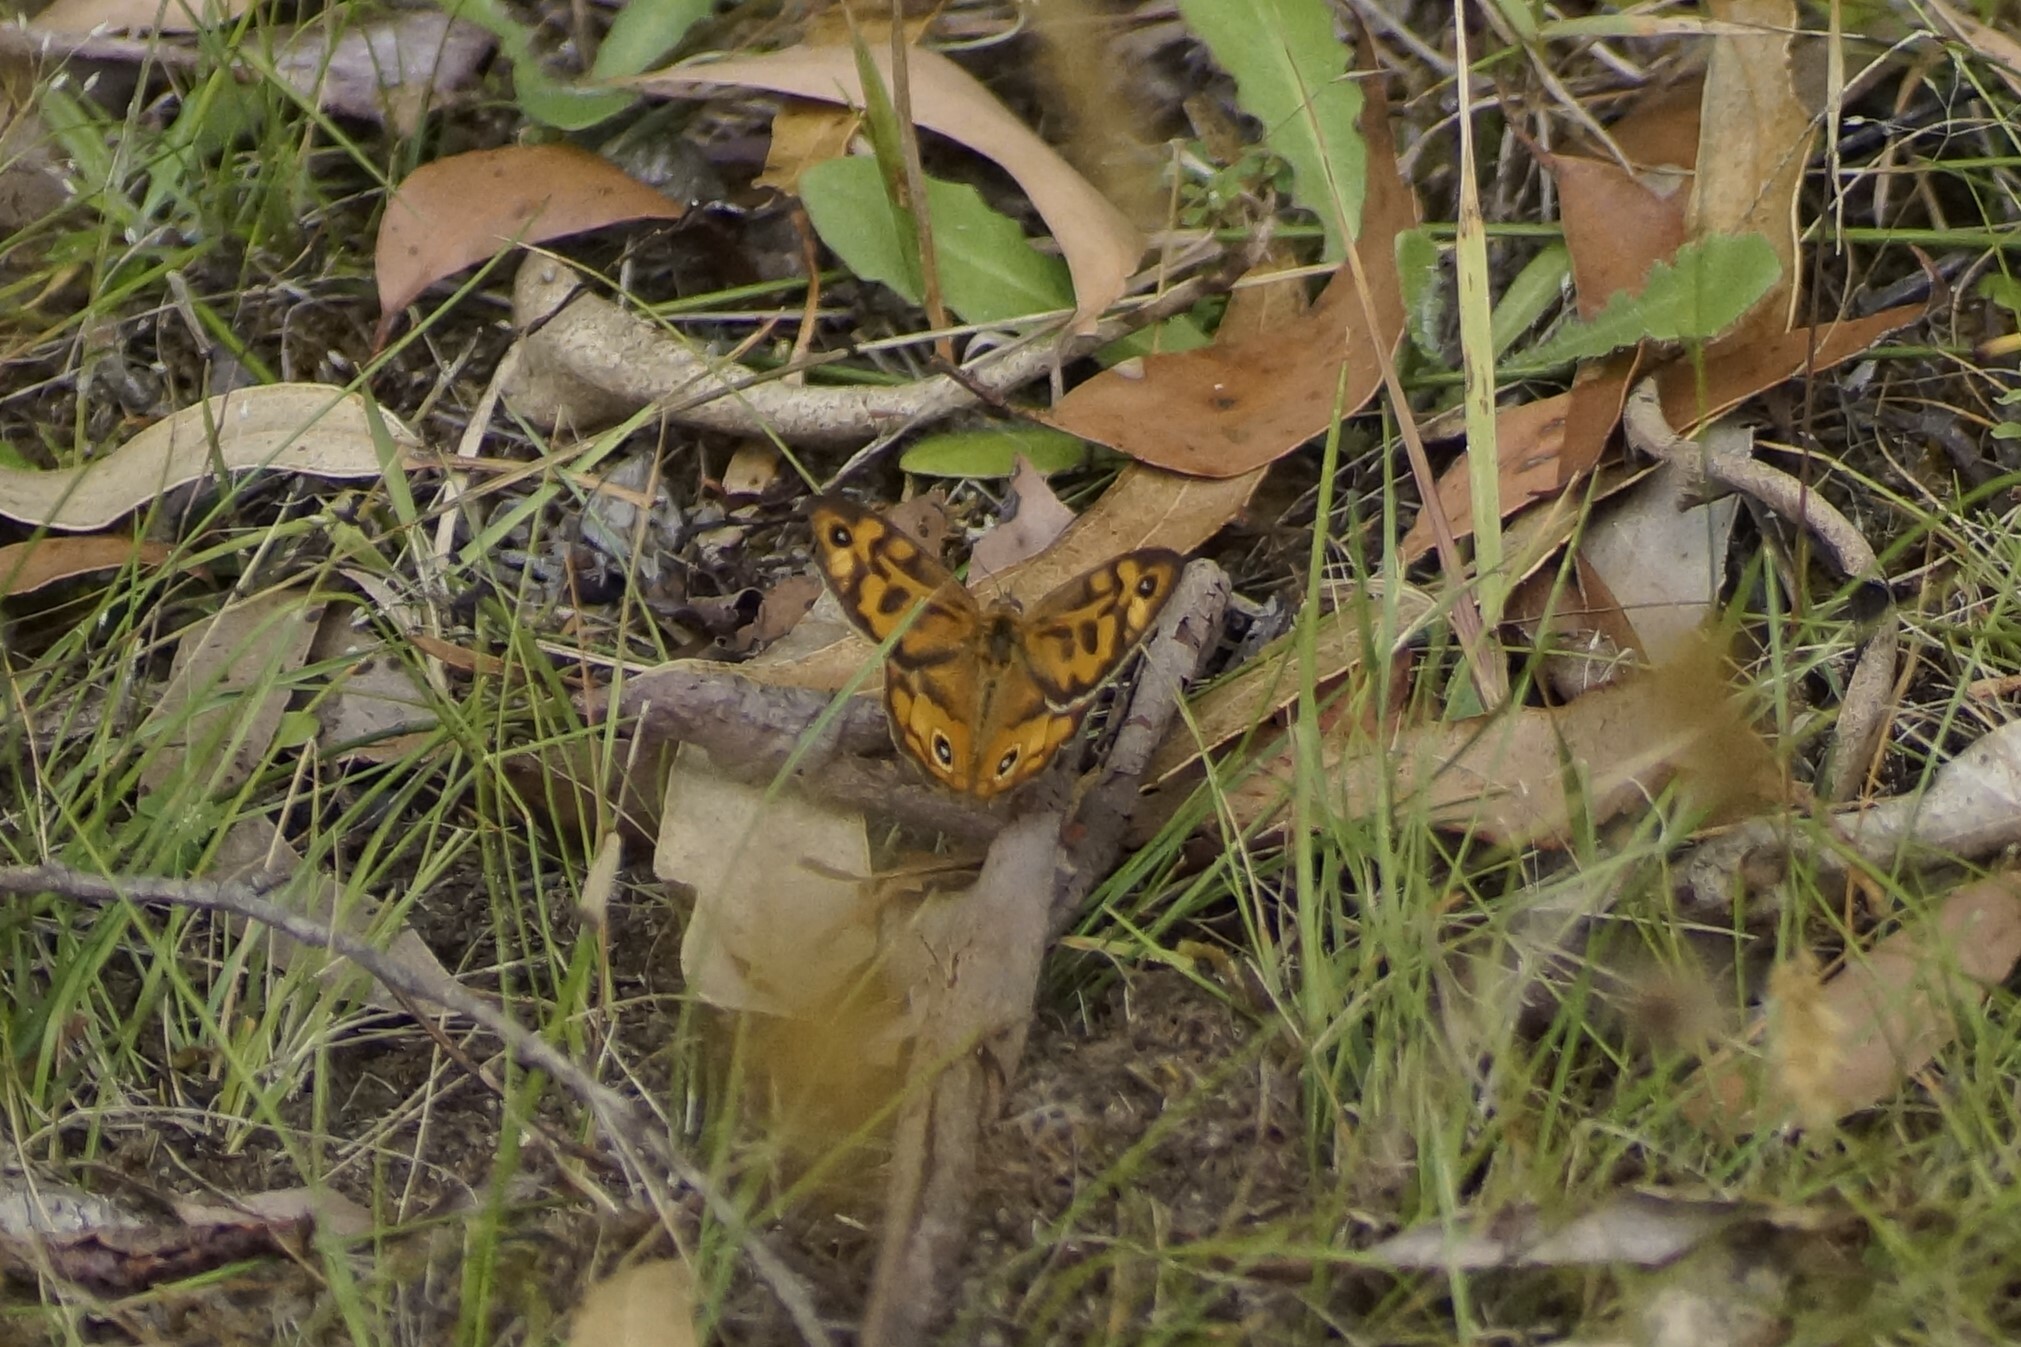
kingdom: Animalia
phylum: Arthropoda
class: Insecta
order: Lepidoptera
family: Nymphalidae
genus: Heteronympha
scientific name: Heteronympha merope
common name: Common brown
